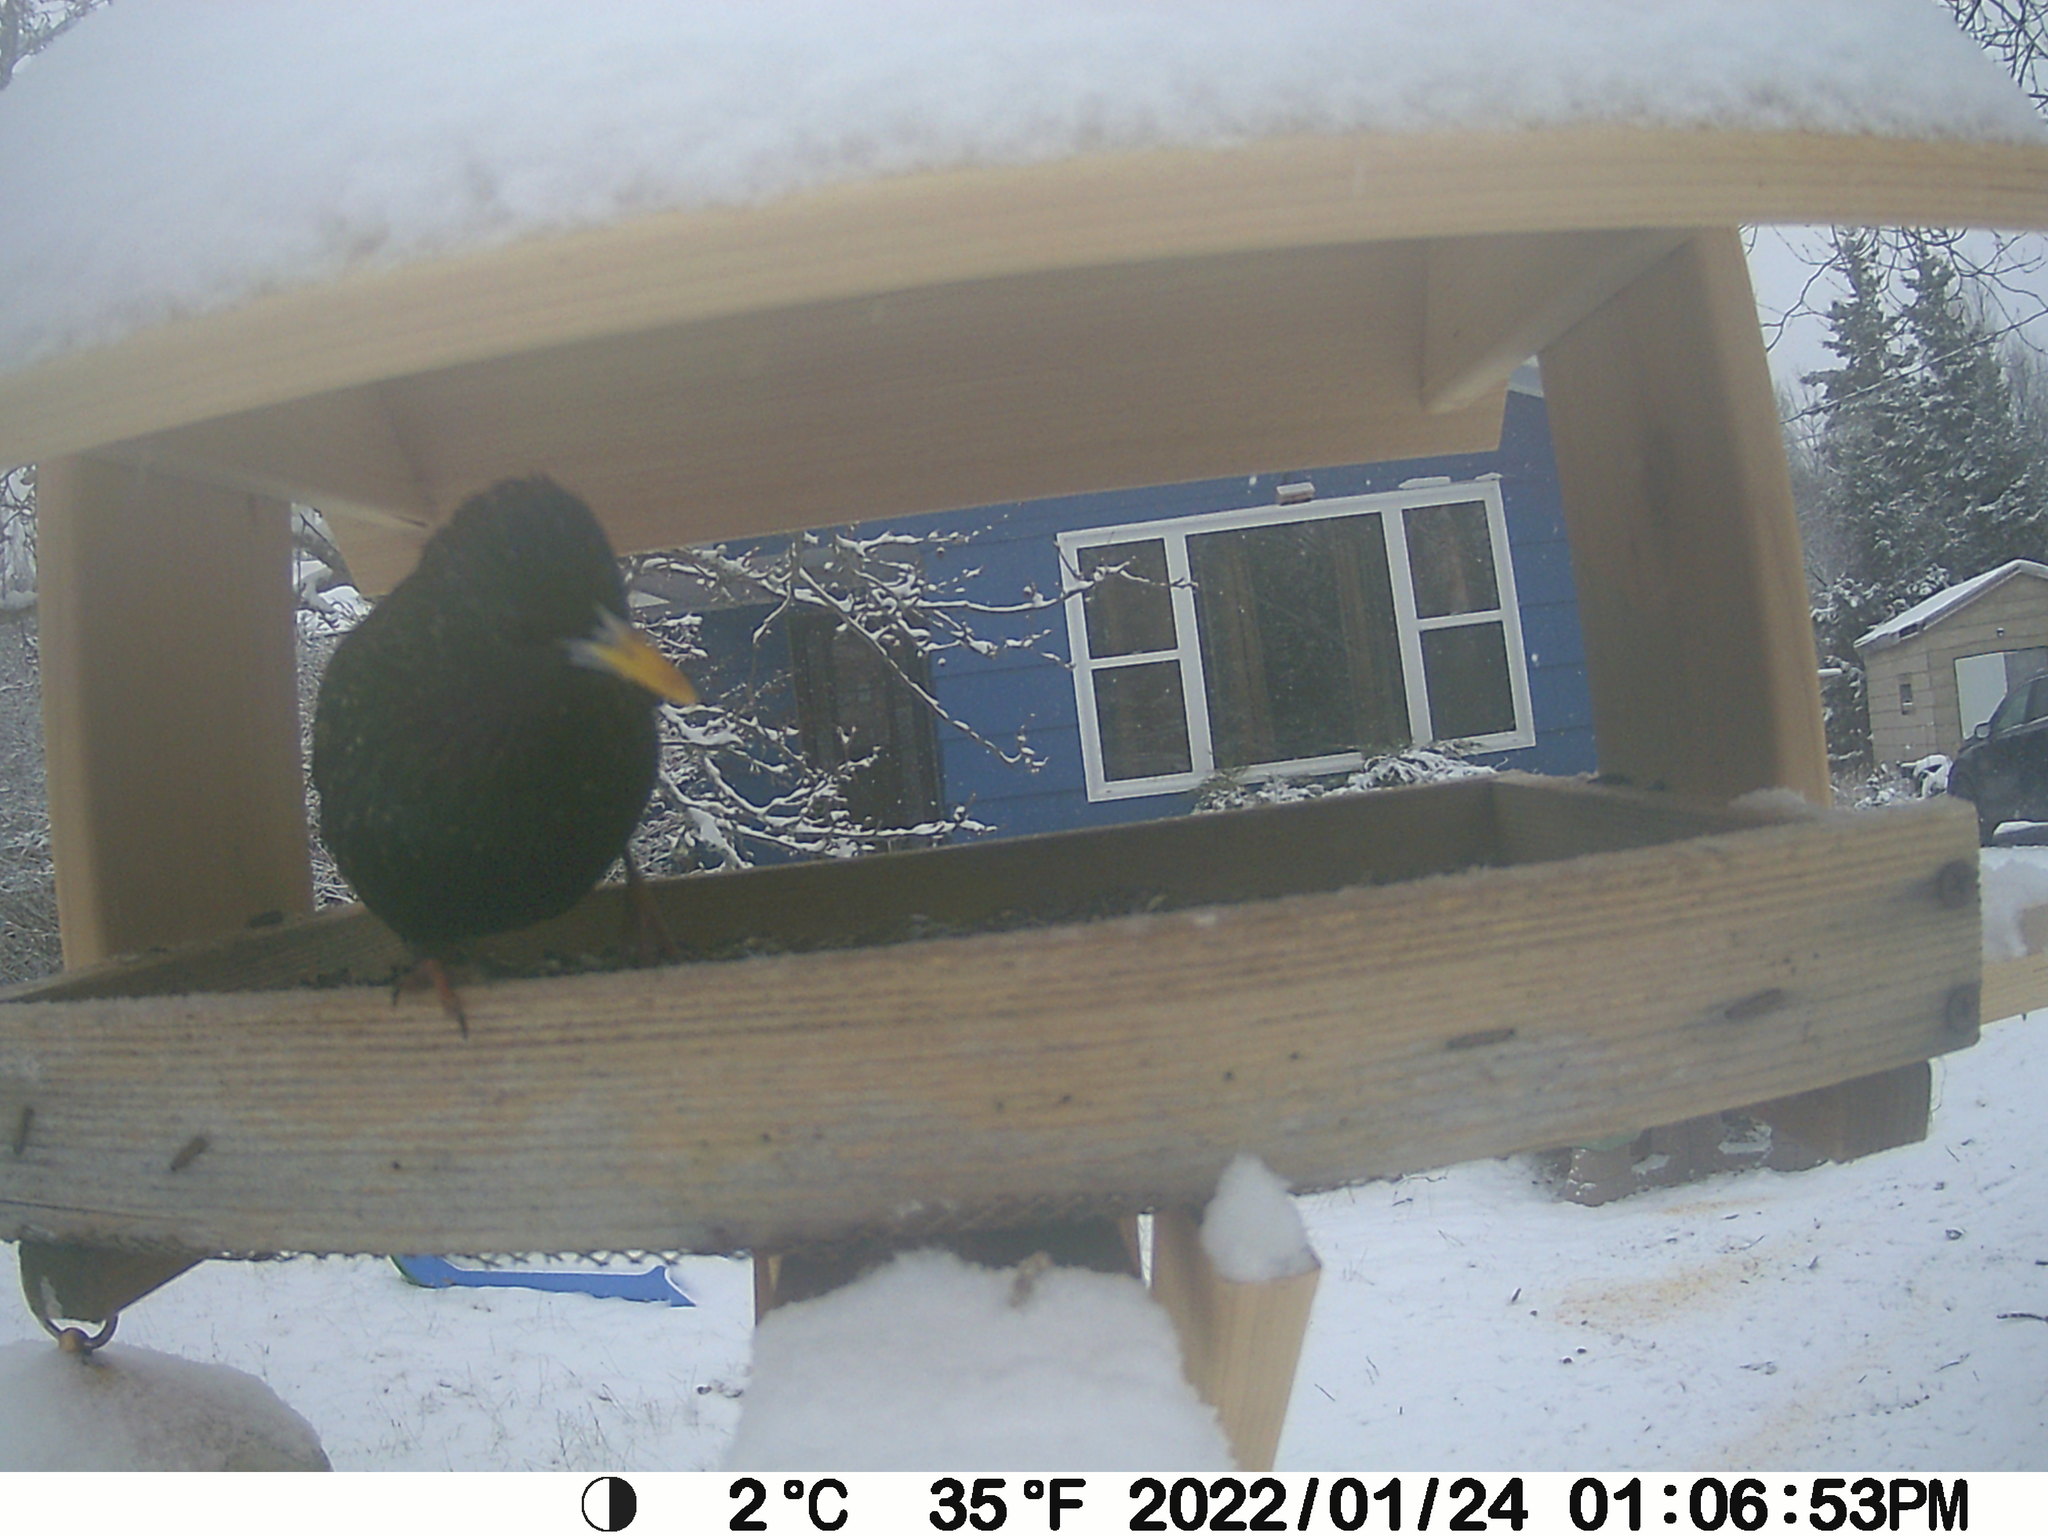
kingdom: Animalia
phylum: Chordata
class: Aves
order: Passeriformes
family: Sturnidae
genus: Sturnus
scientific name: Sturnus vulgaris
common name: Common starling
